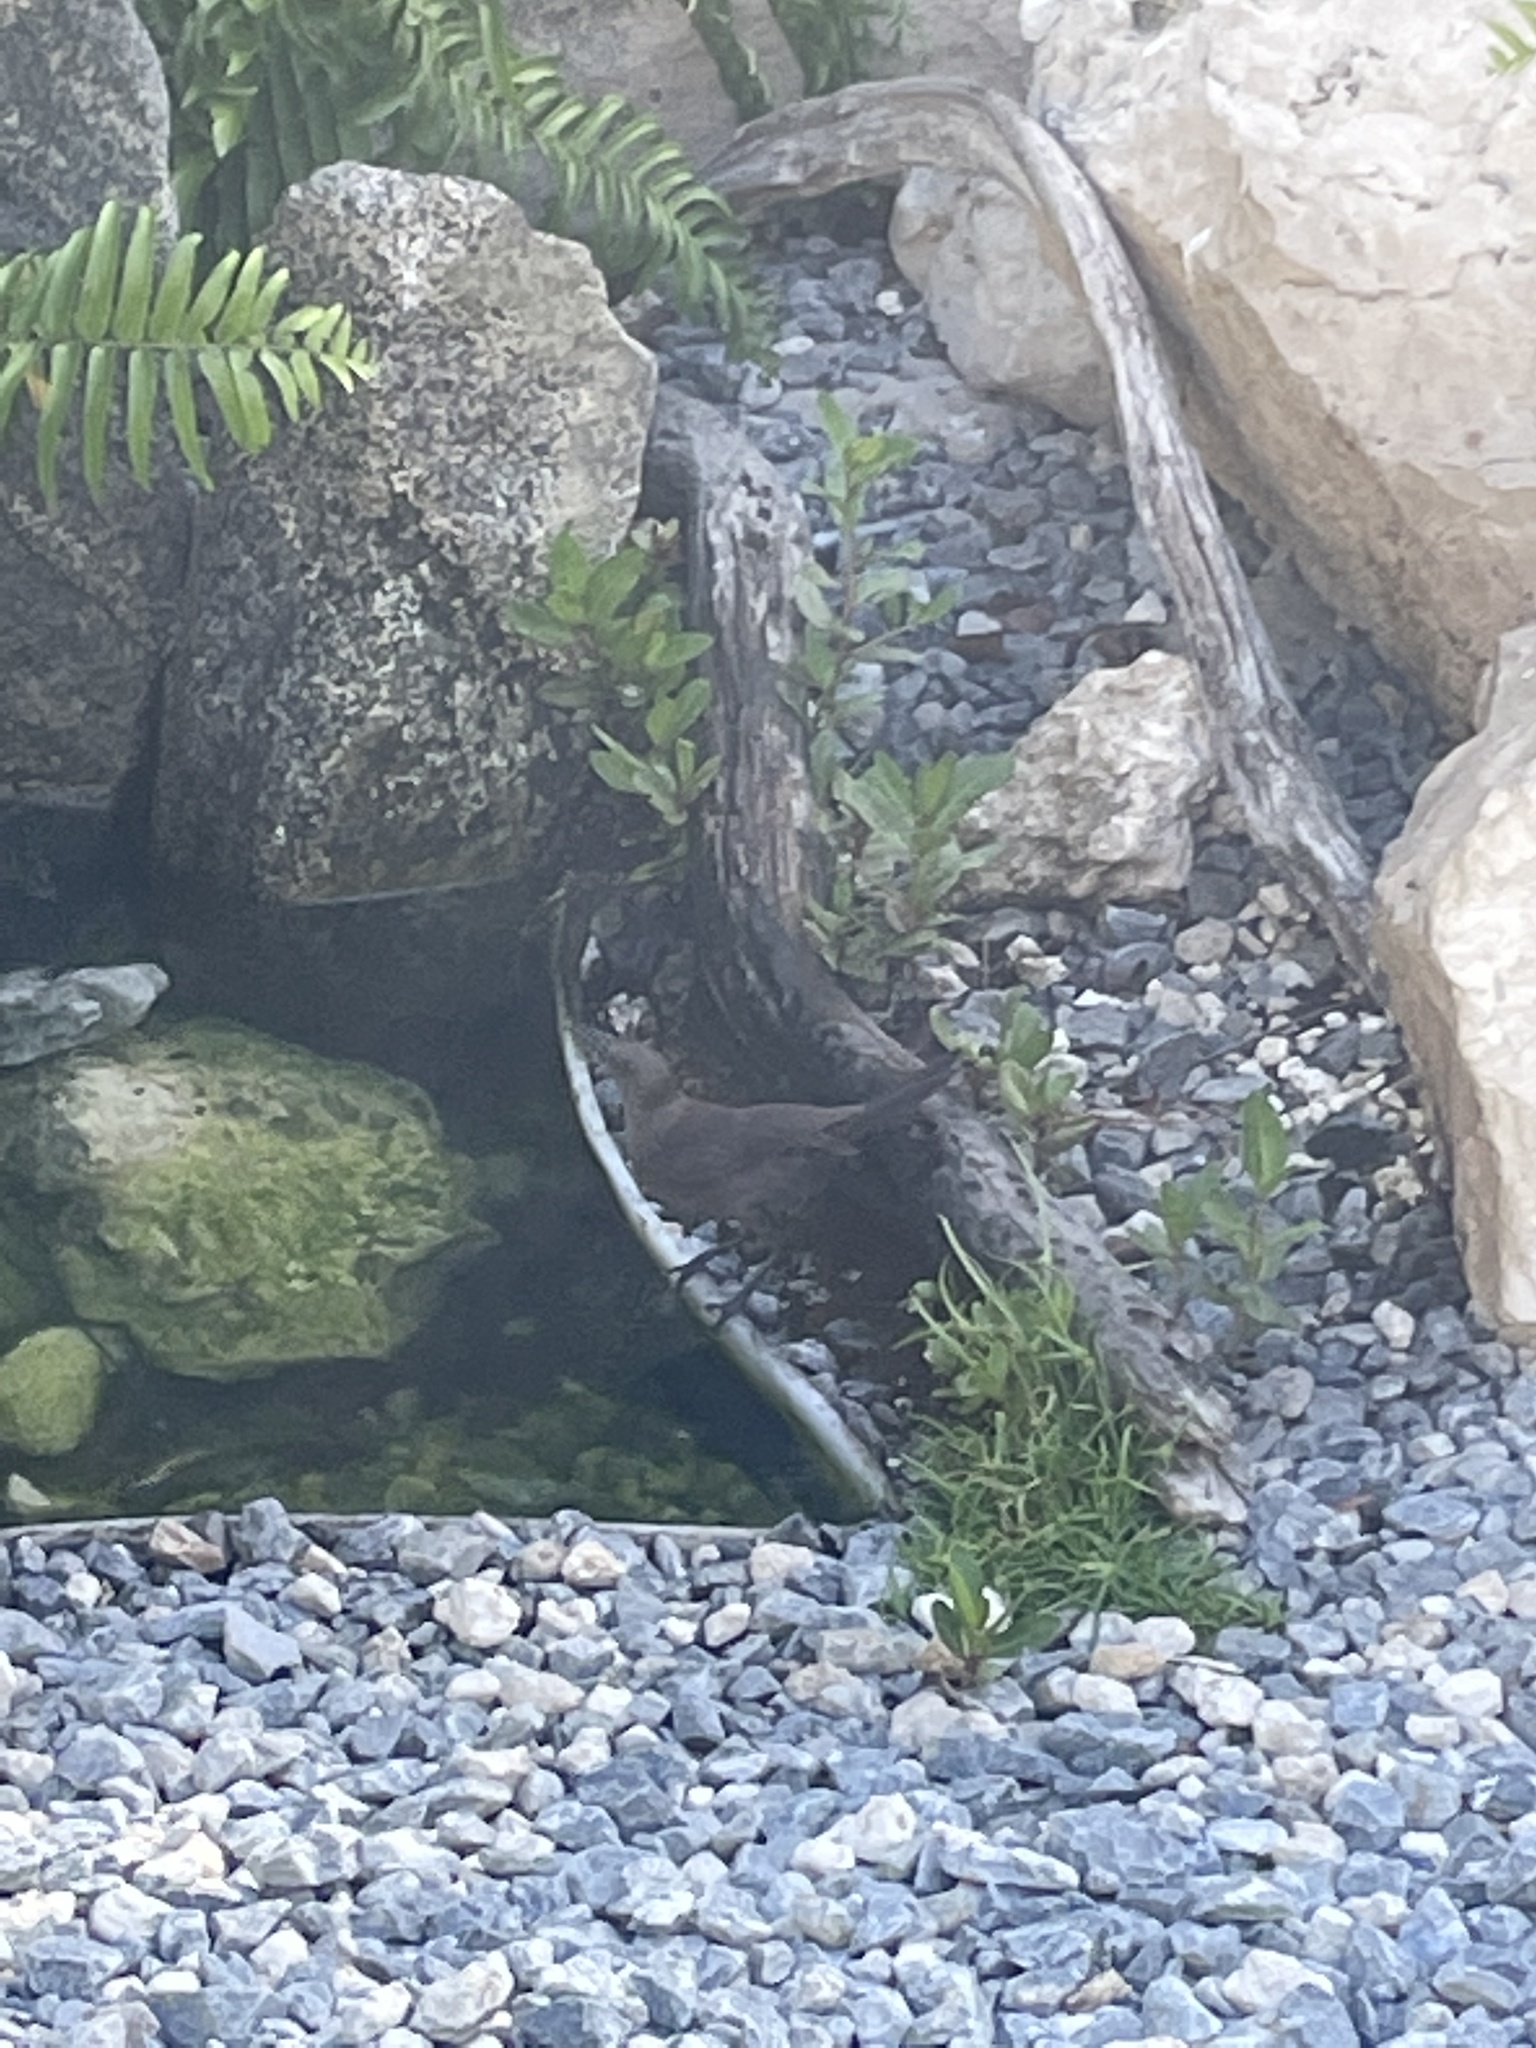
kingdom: Animalia
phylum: Chordata
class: Aves
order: Passeriformes
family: Icteridae
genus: Quiscalus
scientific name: Quiscalus lugubris
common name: Carib grackle
